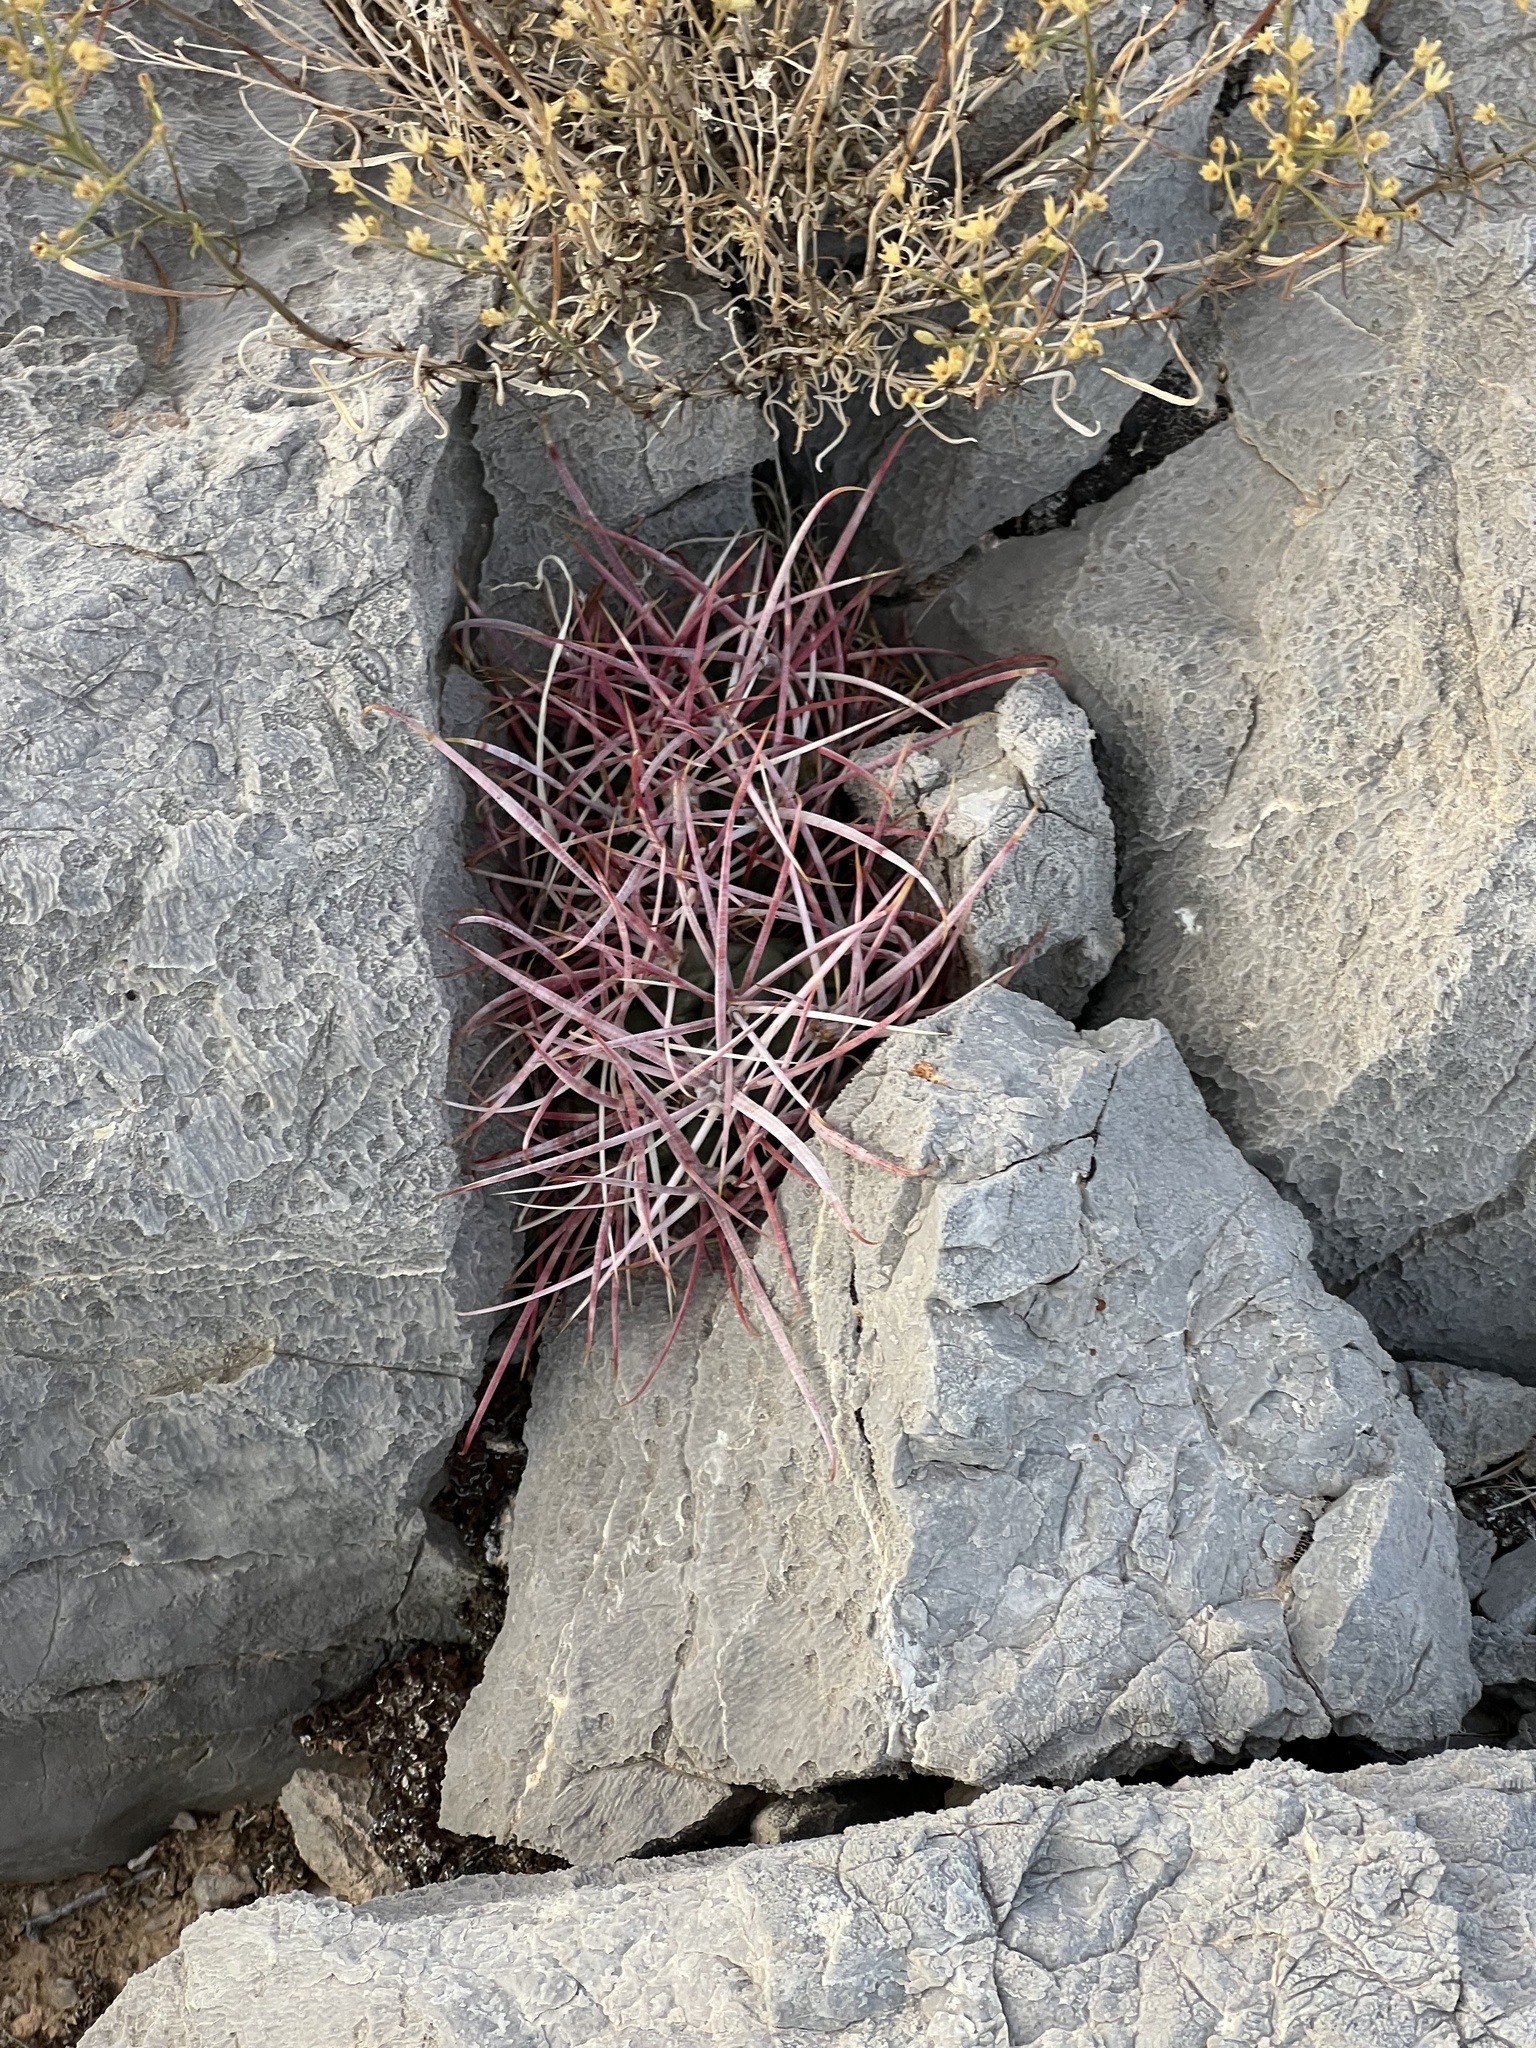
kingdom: Plantae
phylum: Tracheophyta
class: Magnoliopsida
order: Caryophyllales
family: Cactaceae
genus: Ferocactus
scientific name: Ferocactus cylindraceus
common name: California barrel cactus
